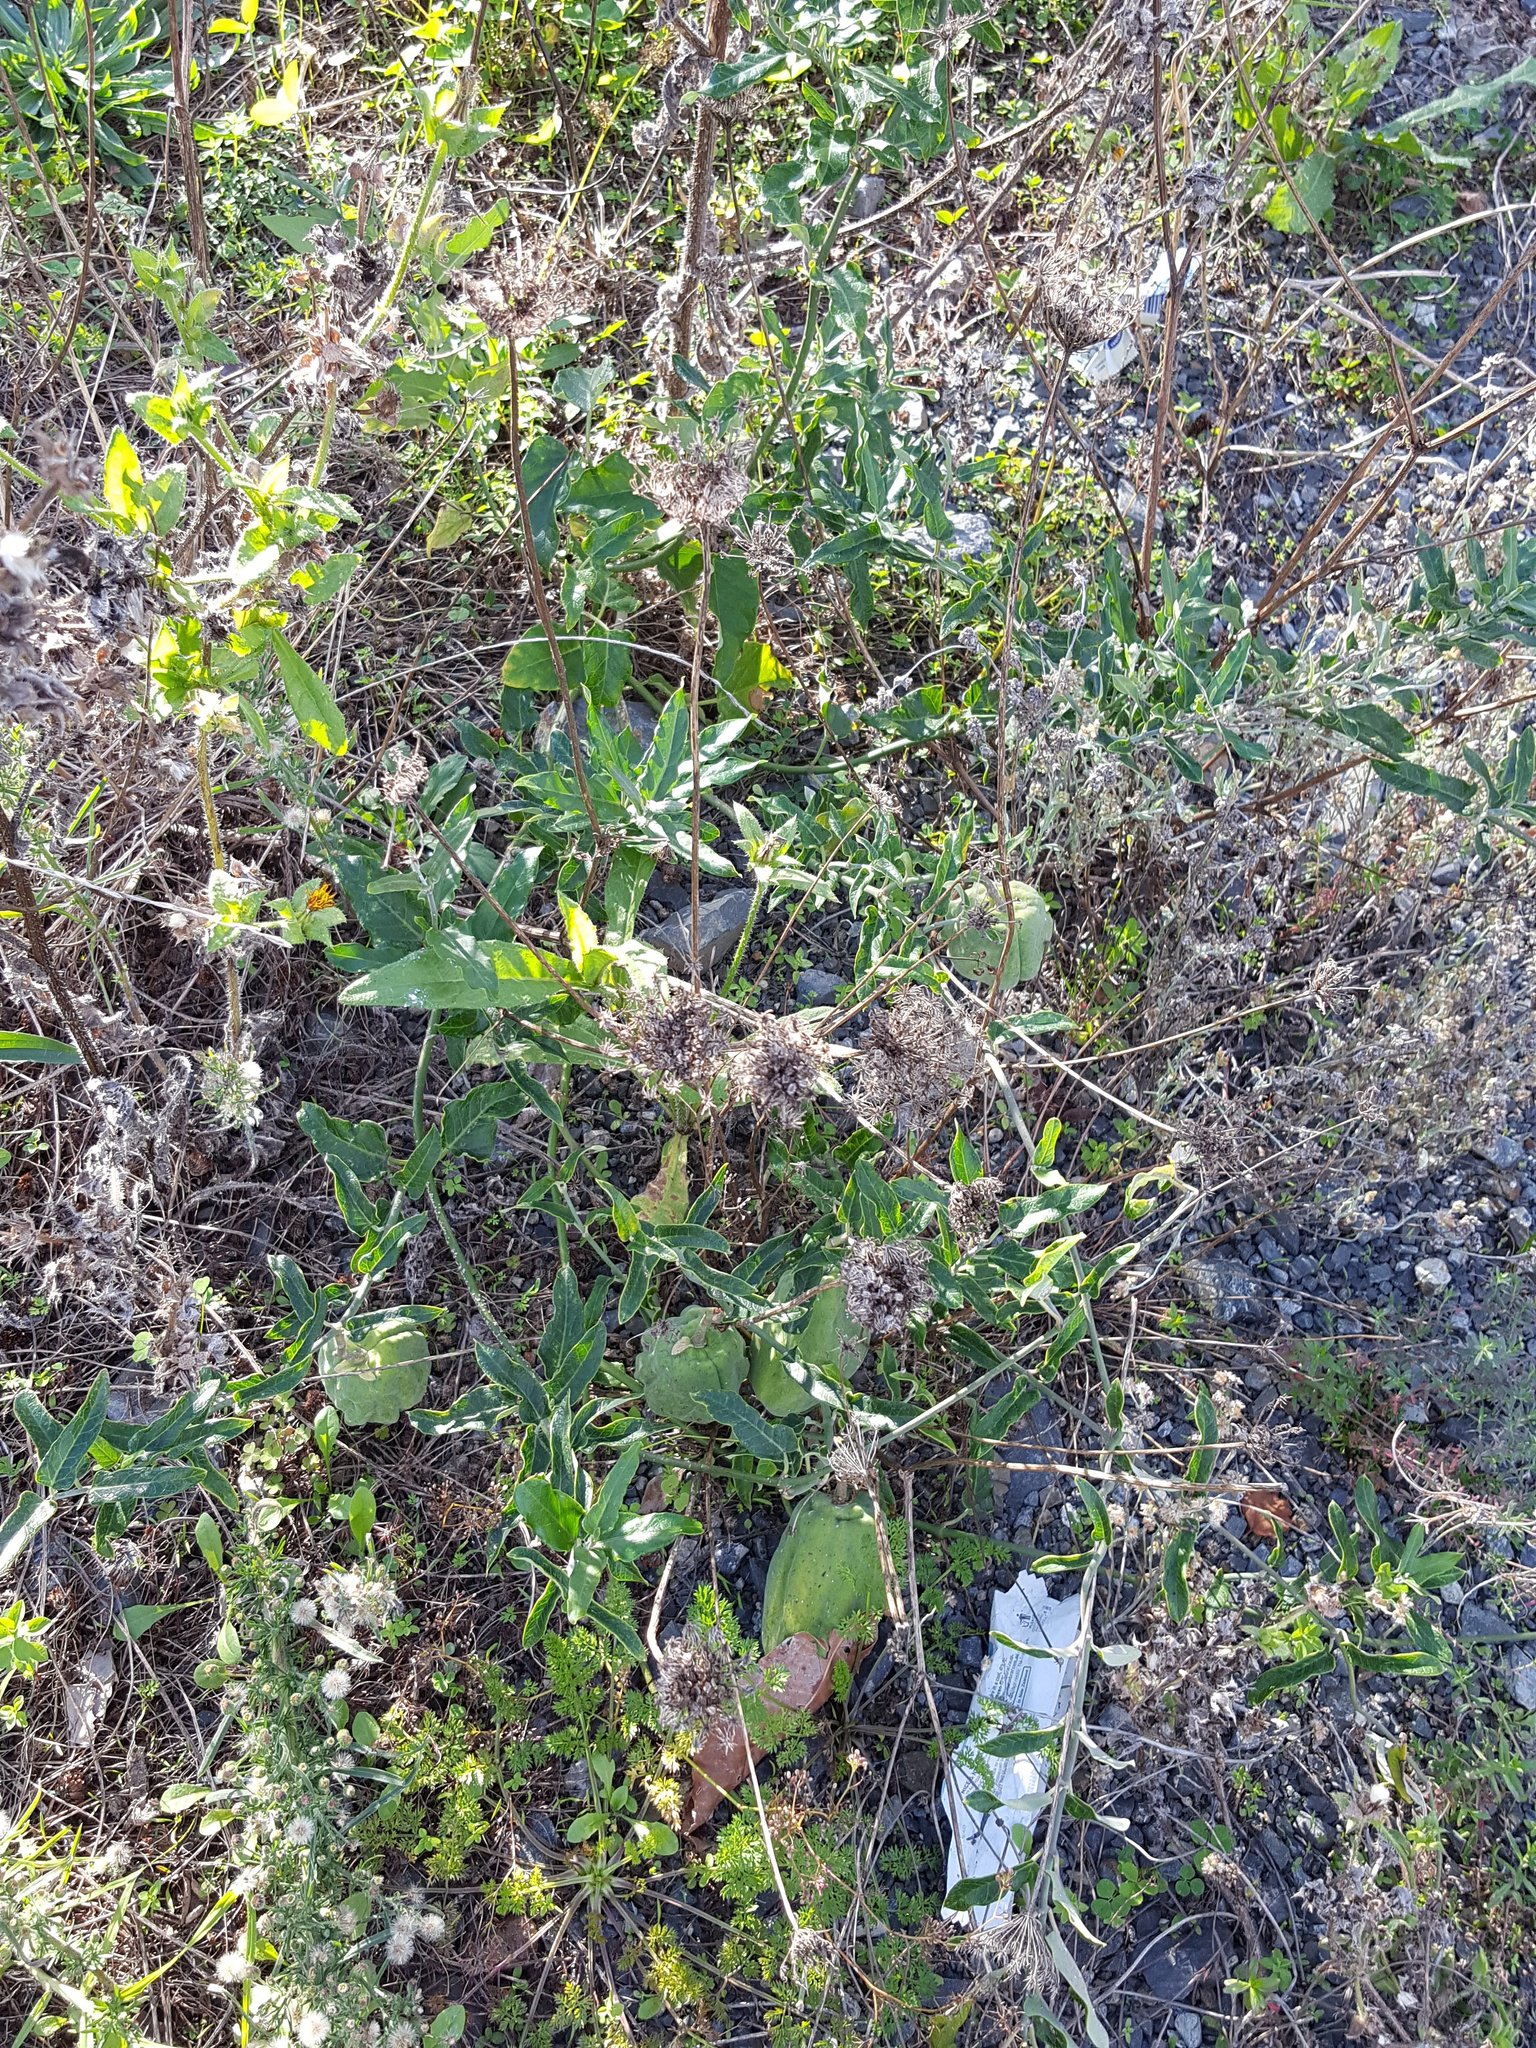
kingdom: Plantae
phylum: Tracheophyta
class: Magnoliopsida
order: Gentianales
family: Apocynaceae
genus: Araujia
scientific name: Araujia sericifera
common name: White bladderflower
